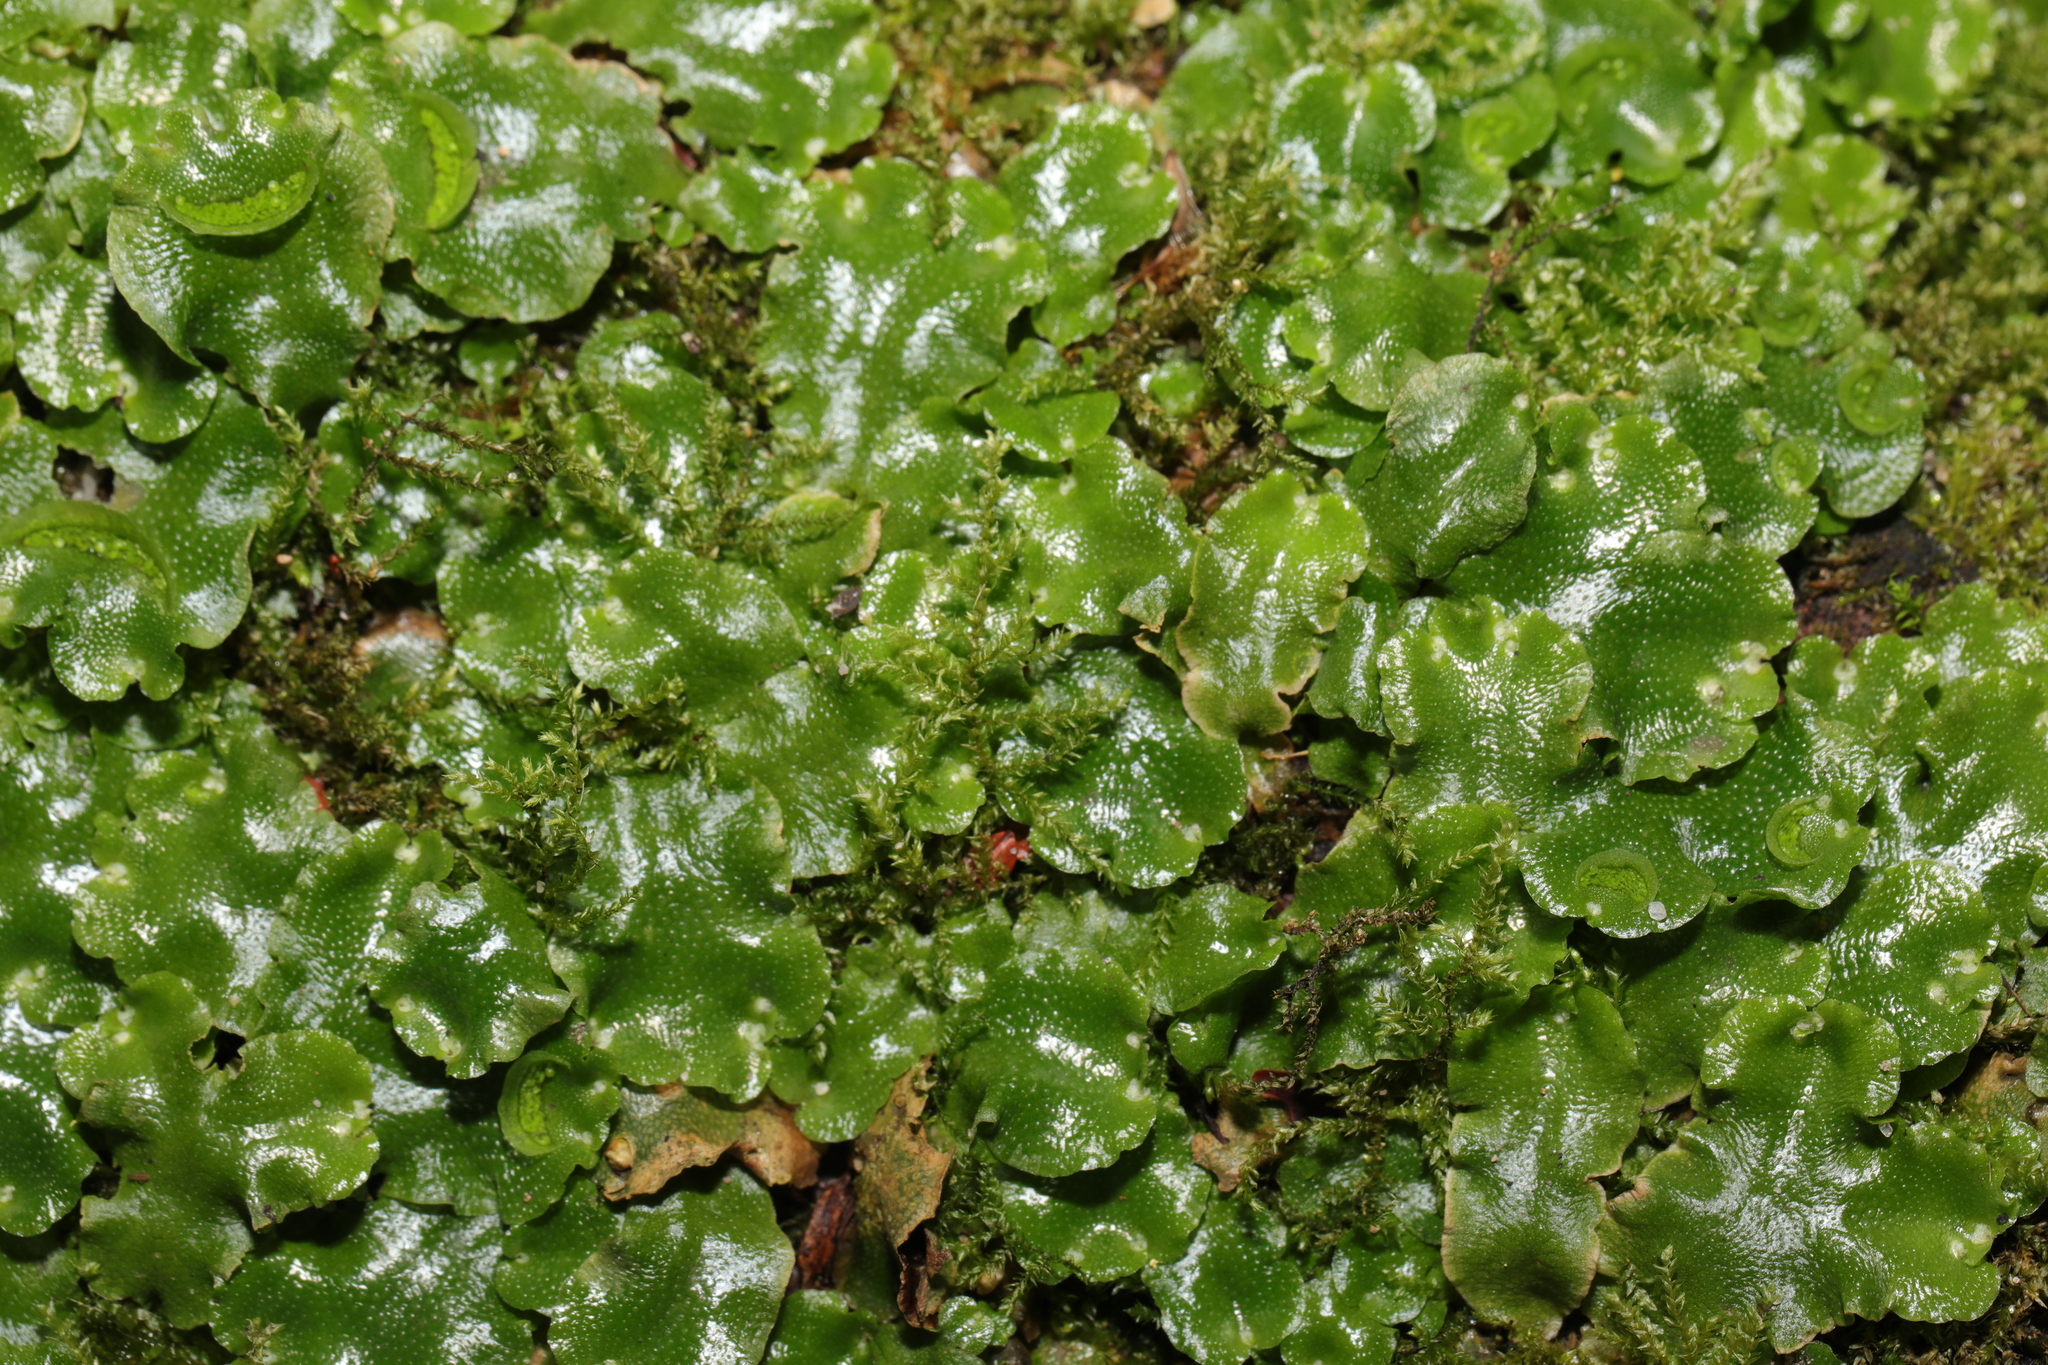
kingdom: Plantae
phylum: Marchantiophyta
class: Marchantiopsida
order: Lunulariales
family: Lunulariaceae
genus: Lunularia
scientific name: Lunularia cruciata
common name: Crescent-cup liverwort
